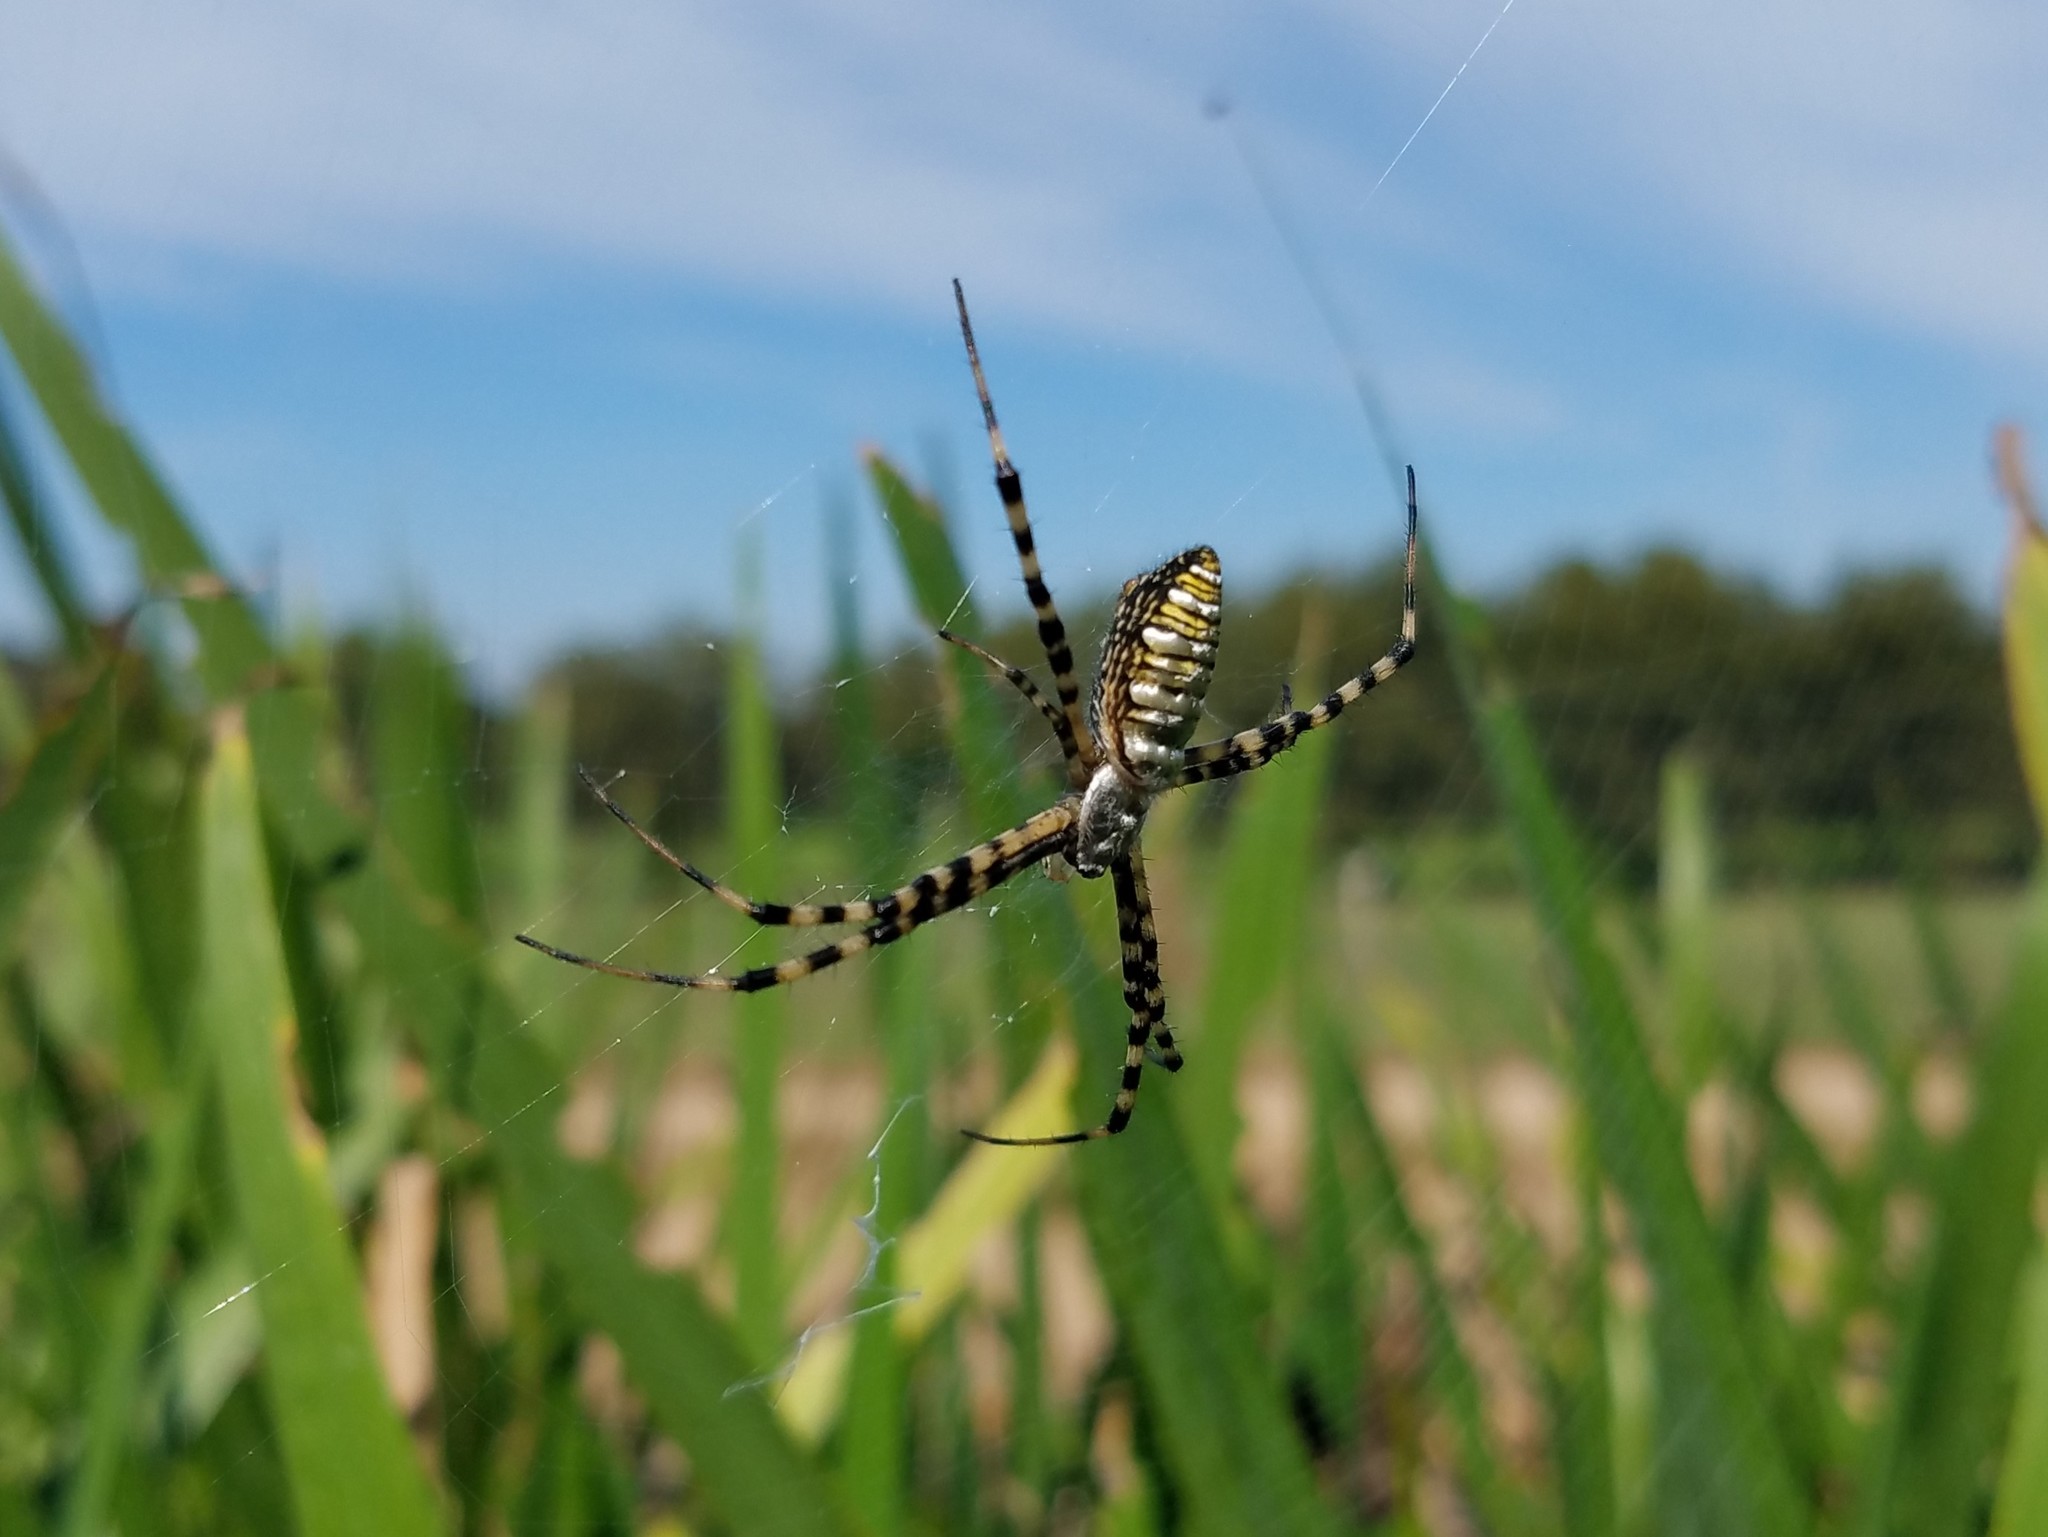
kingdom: Animalia
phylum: Arthropoda
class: Arachnida
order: Araneae
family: Araneidae
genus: Argiope
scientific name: Argiope trifasciata
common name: Banded garden spider
